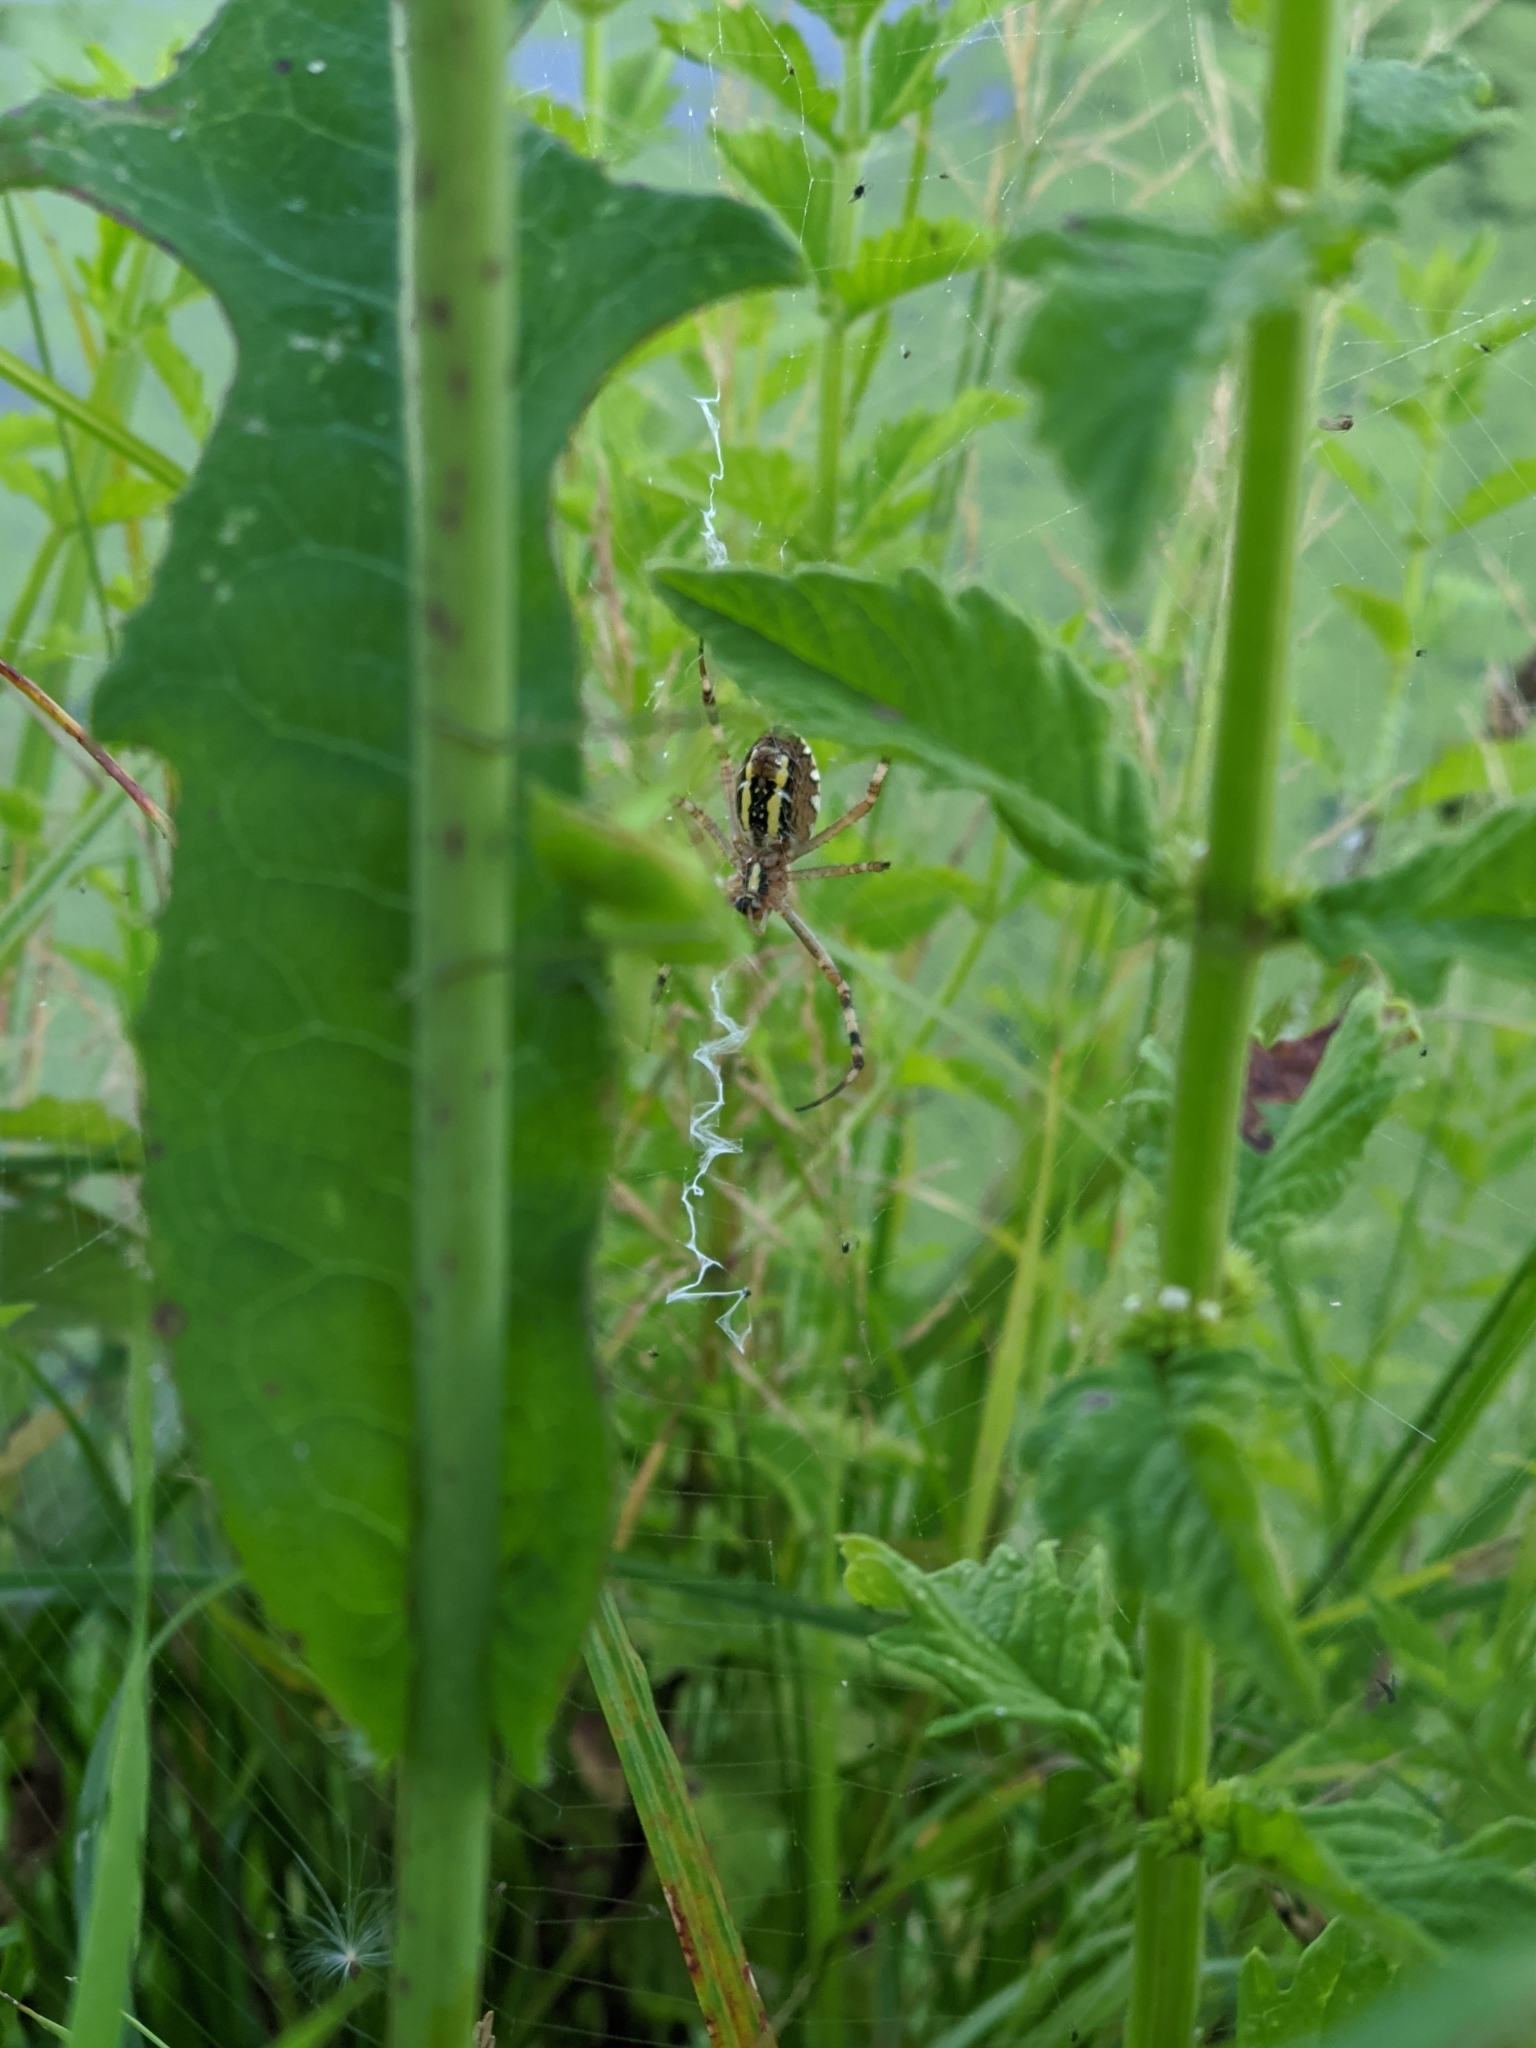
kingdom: Animalia
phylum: Arthropoda
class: Arachnida
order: Araneae
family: Araneidae
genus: Argiope
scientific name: Argiope bruennichi
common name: Wasp spider
